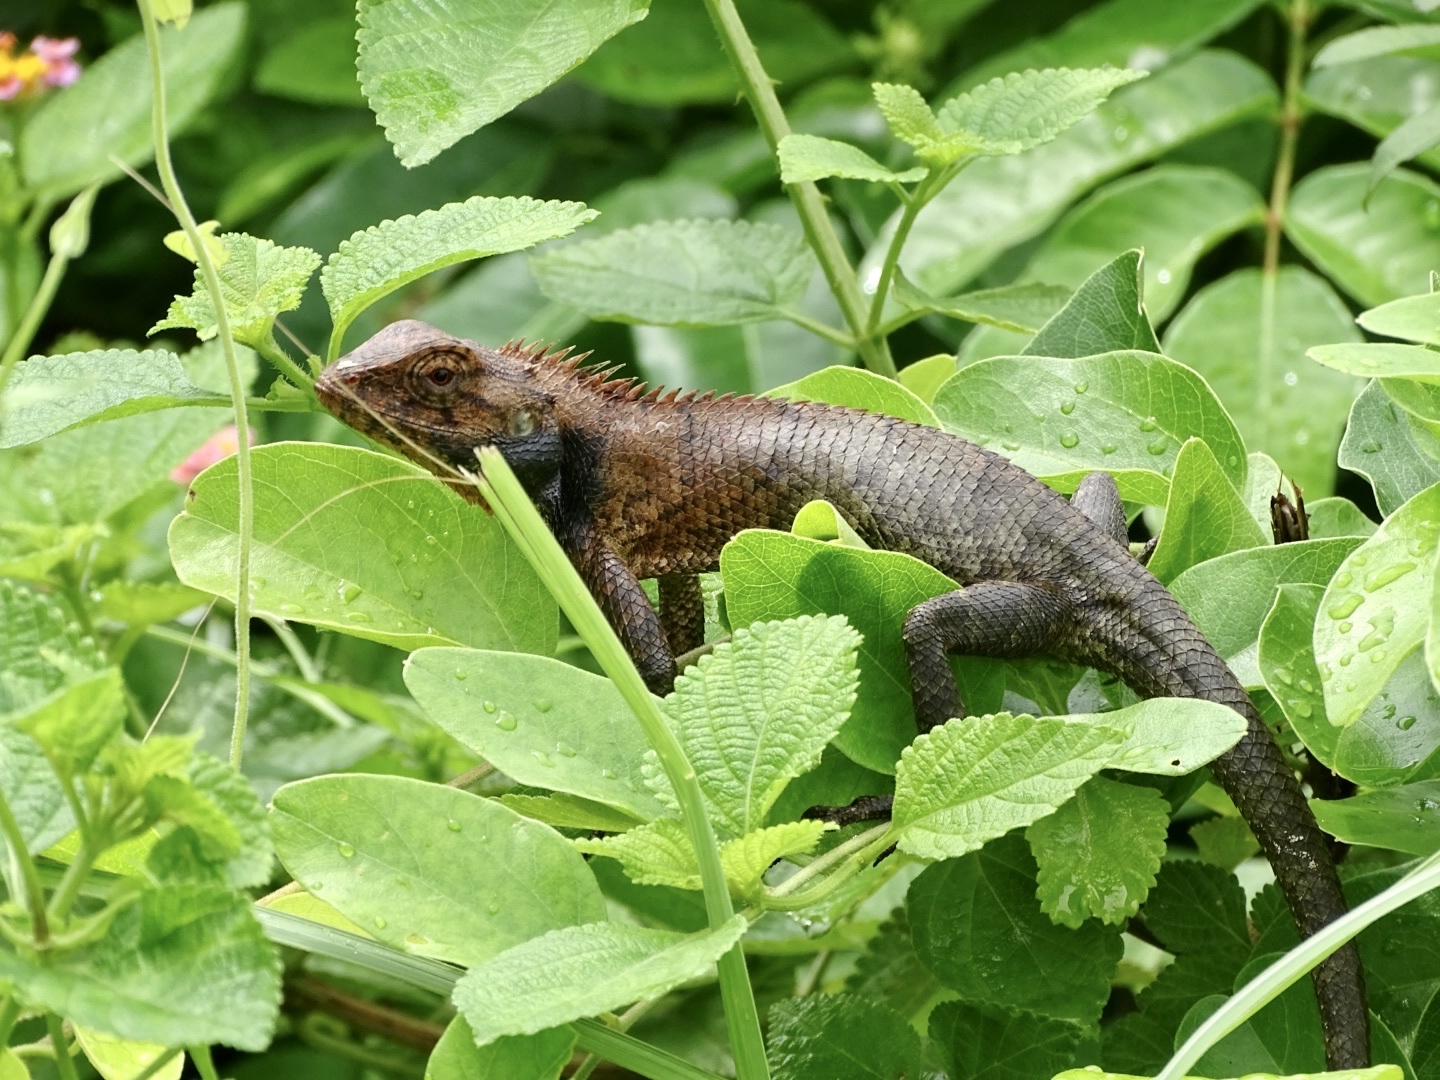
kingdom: Animalia
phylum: Chordata
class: Squamata
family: Agamidae
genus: Calotes
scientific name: Calotes versicolor
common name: Oriental garden lizard
